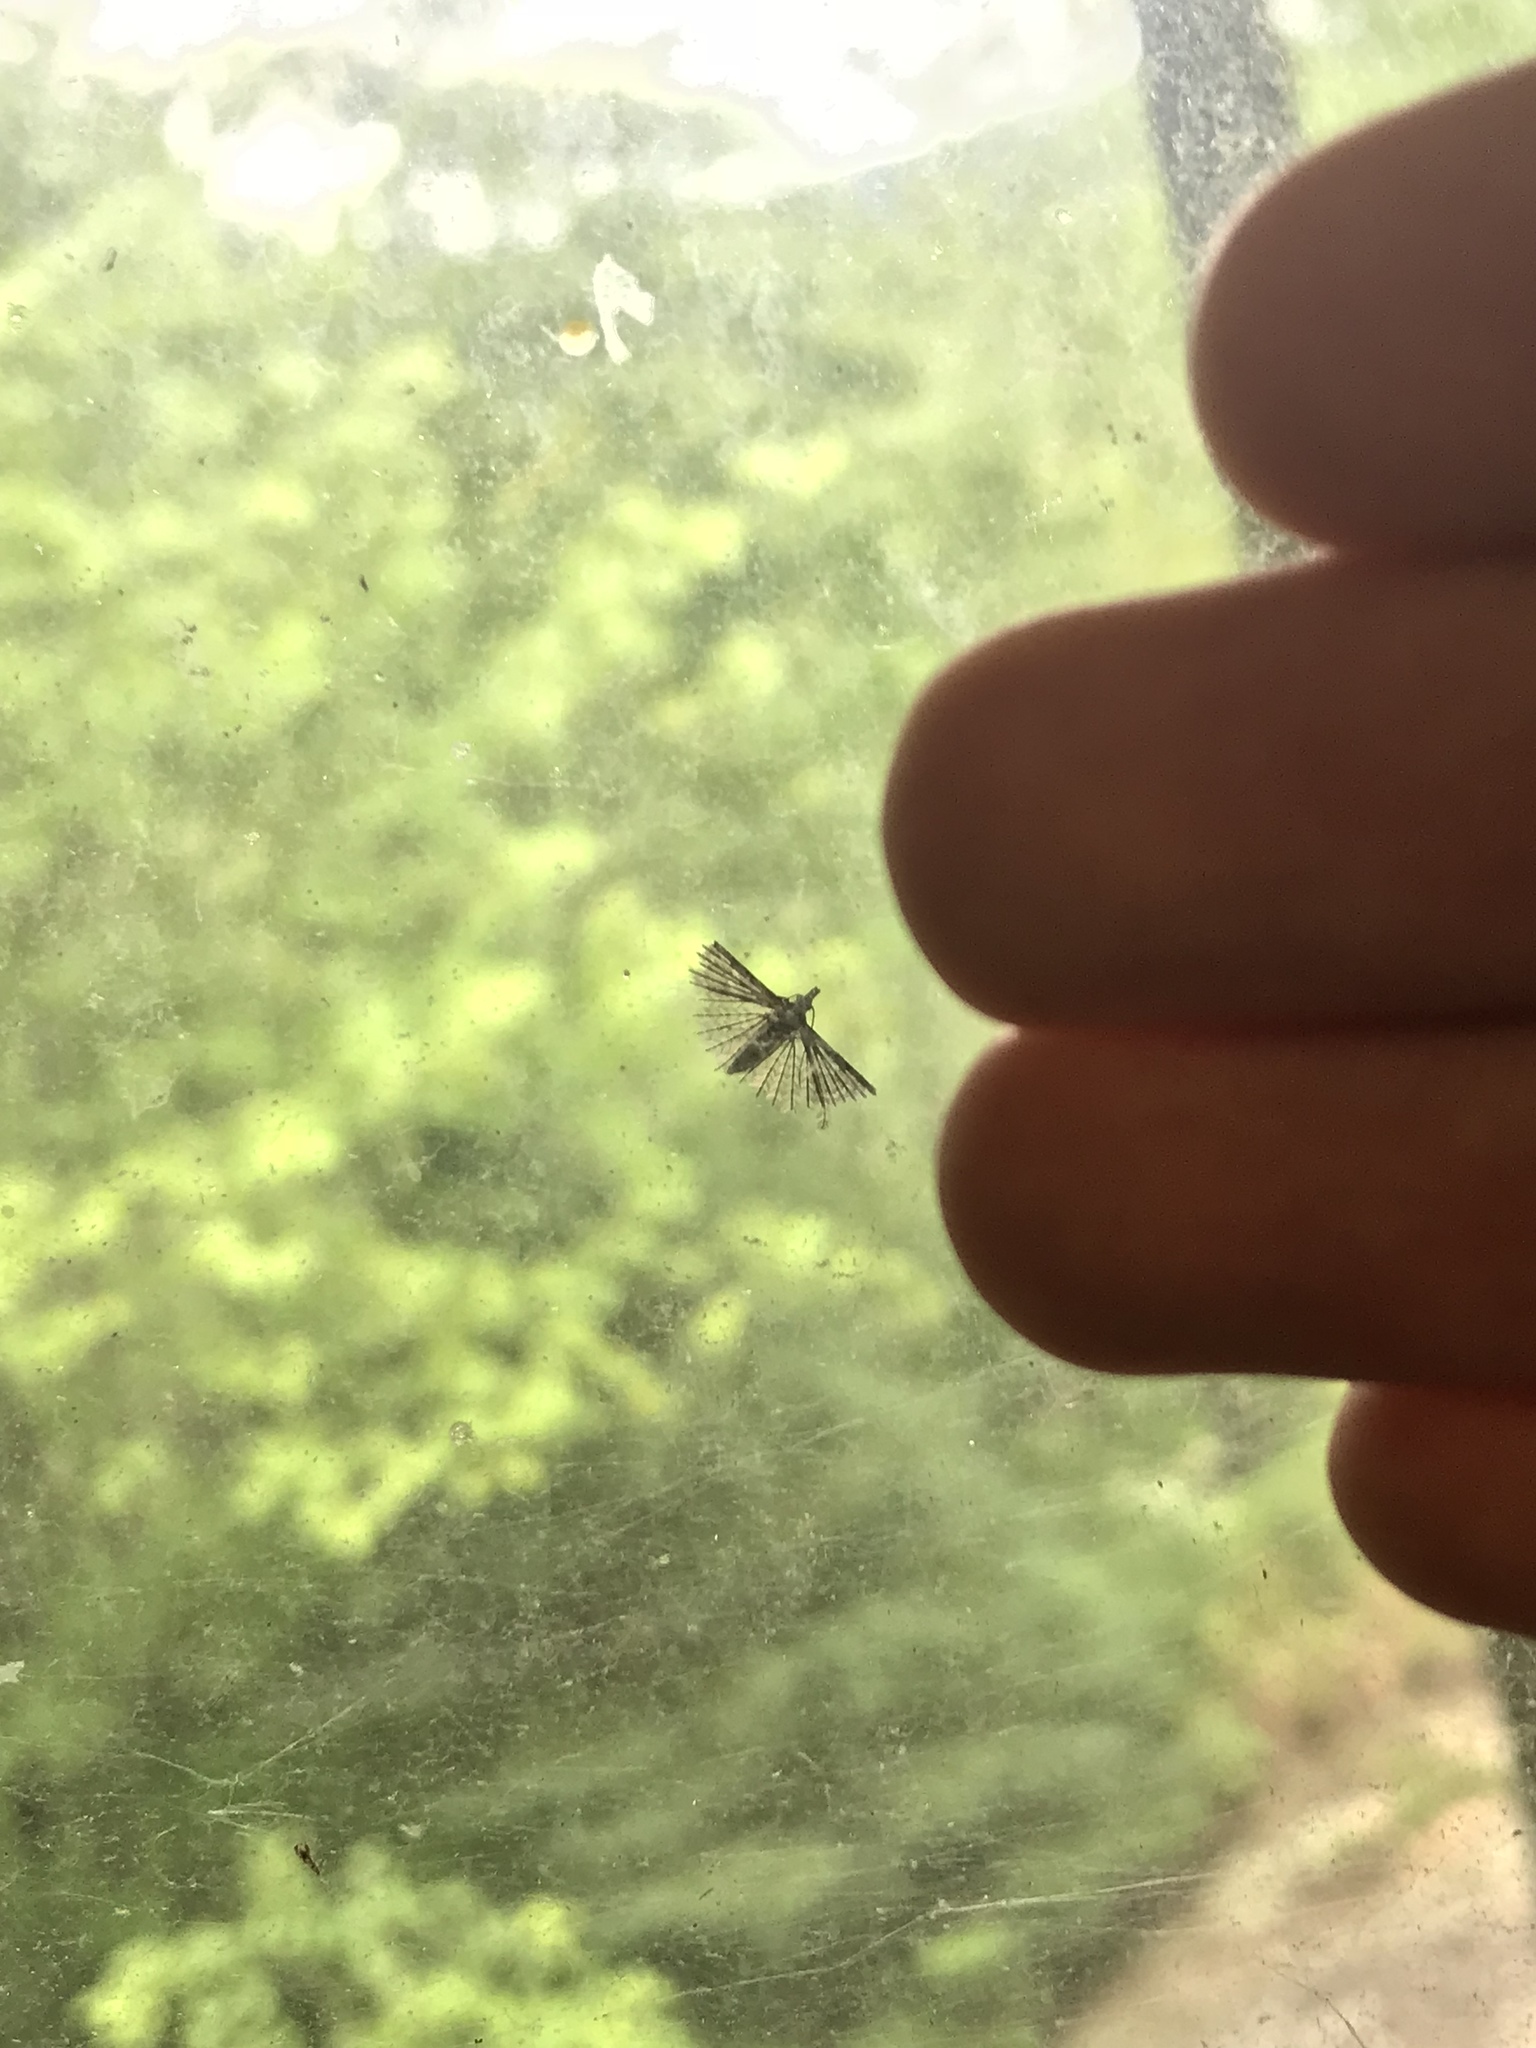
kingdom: Animalia
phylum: Arthropoda
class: Insecta
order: Lepidoptera
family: Alucitidae
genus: Alucita
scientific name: Alucita
